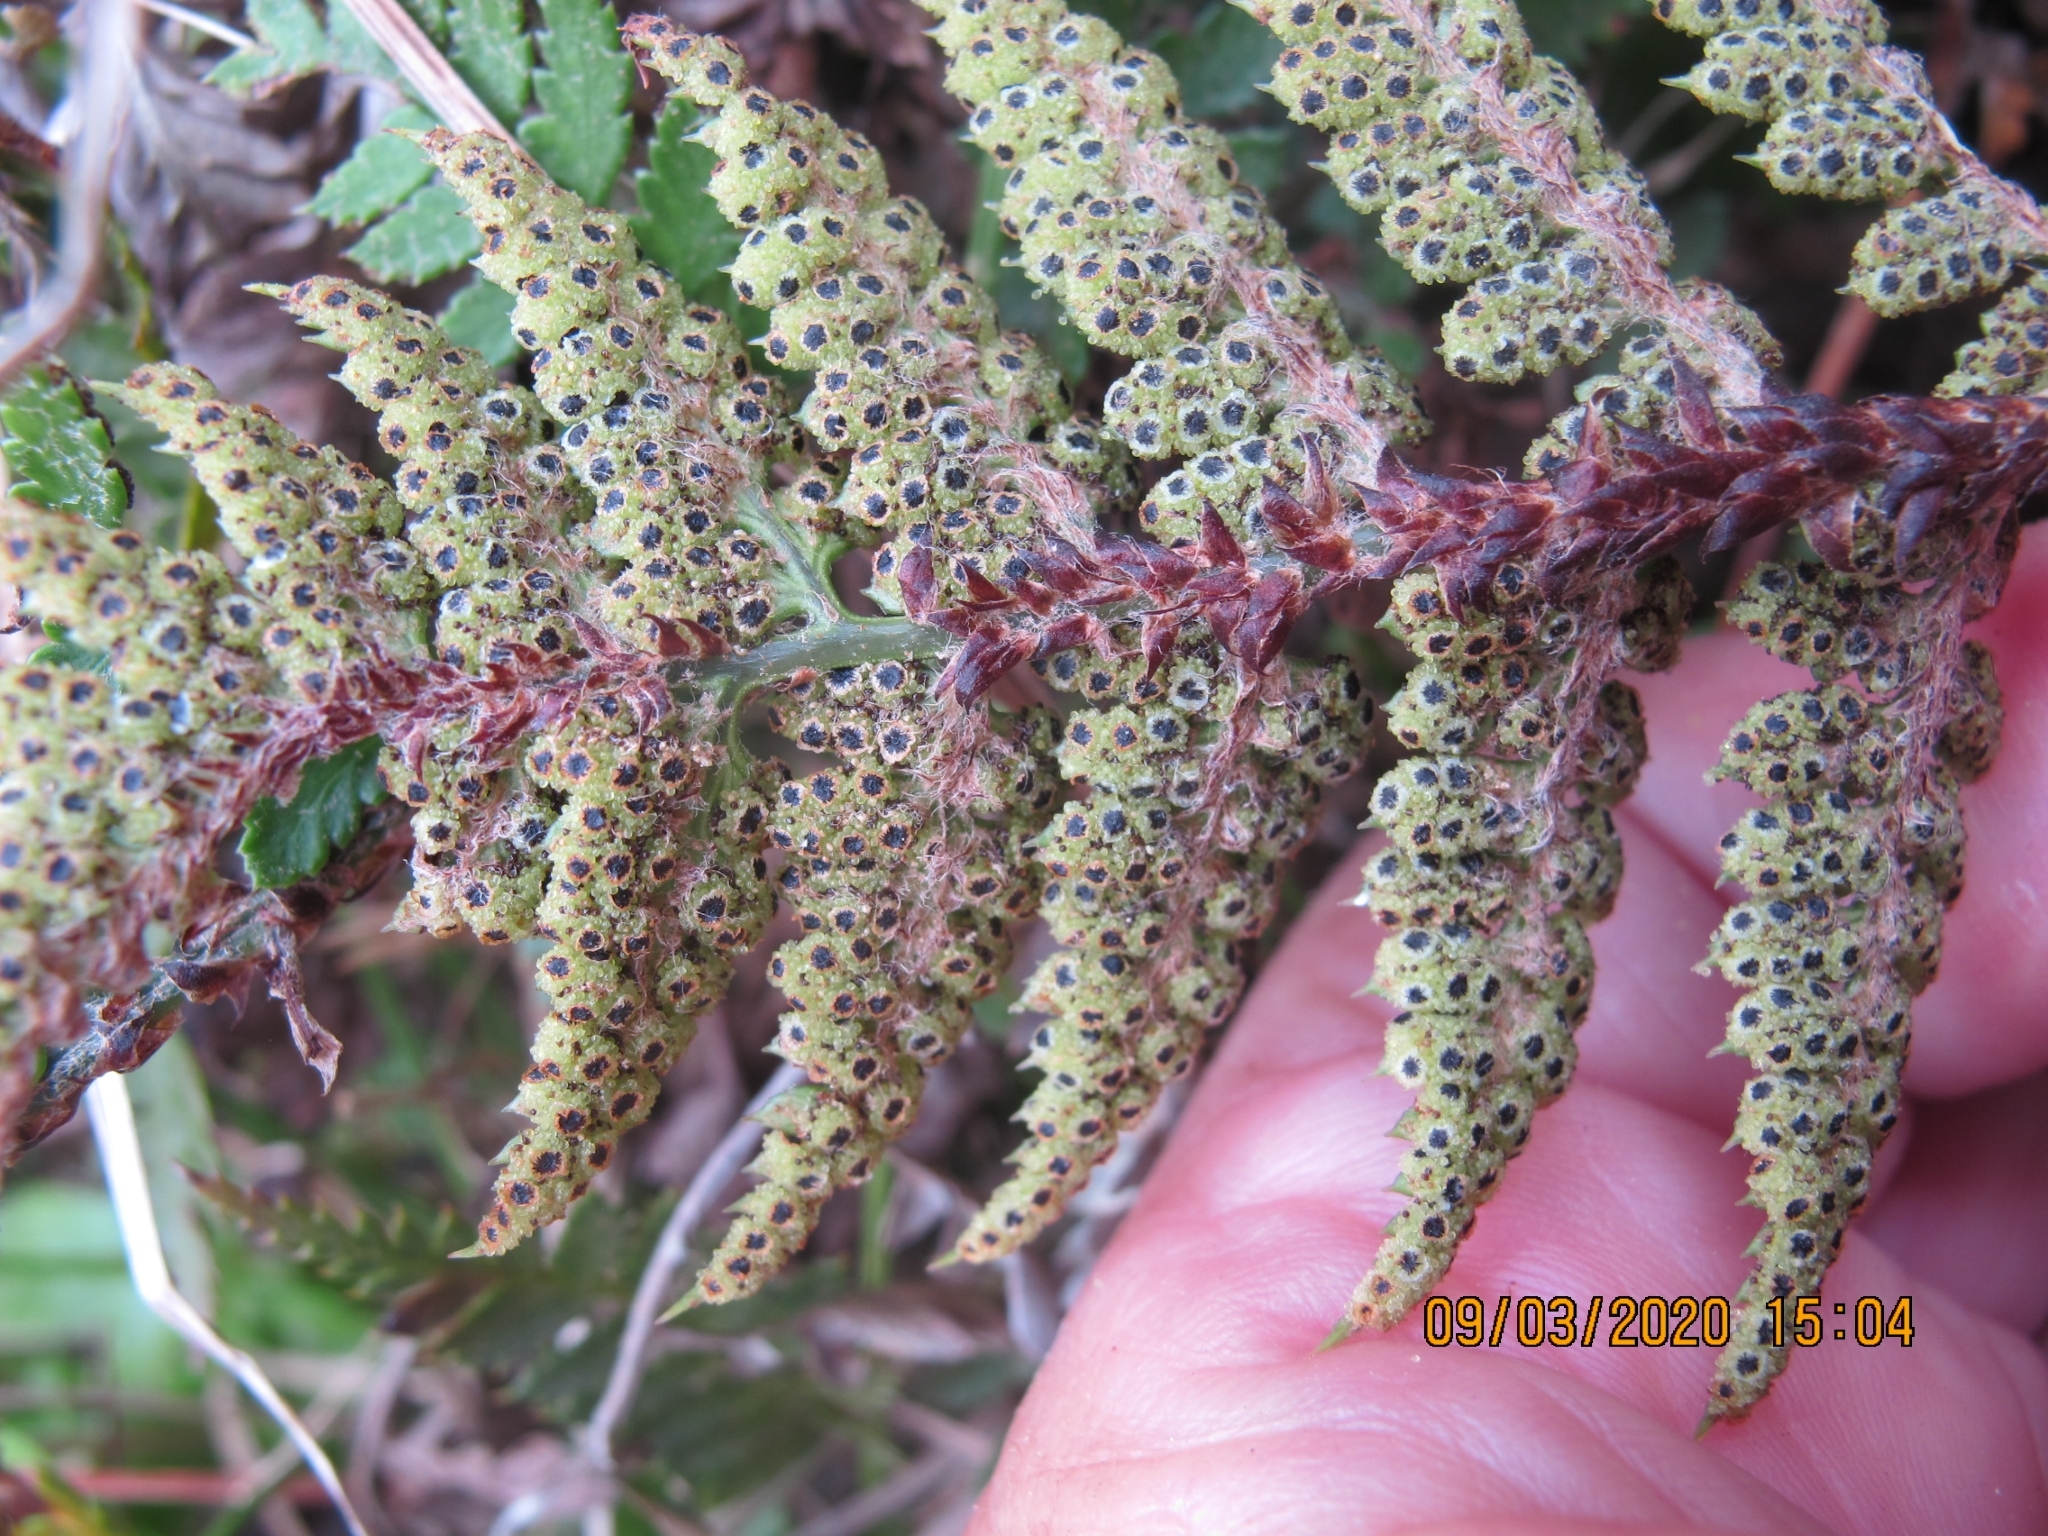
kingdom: Plantae
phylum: Tracheophyta
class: Polypodiopsida
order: Polypodiales
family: Dryopteridaceae
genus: Polystichum
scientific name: Polystichum oculatum
